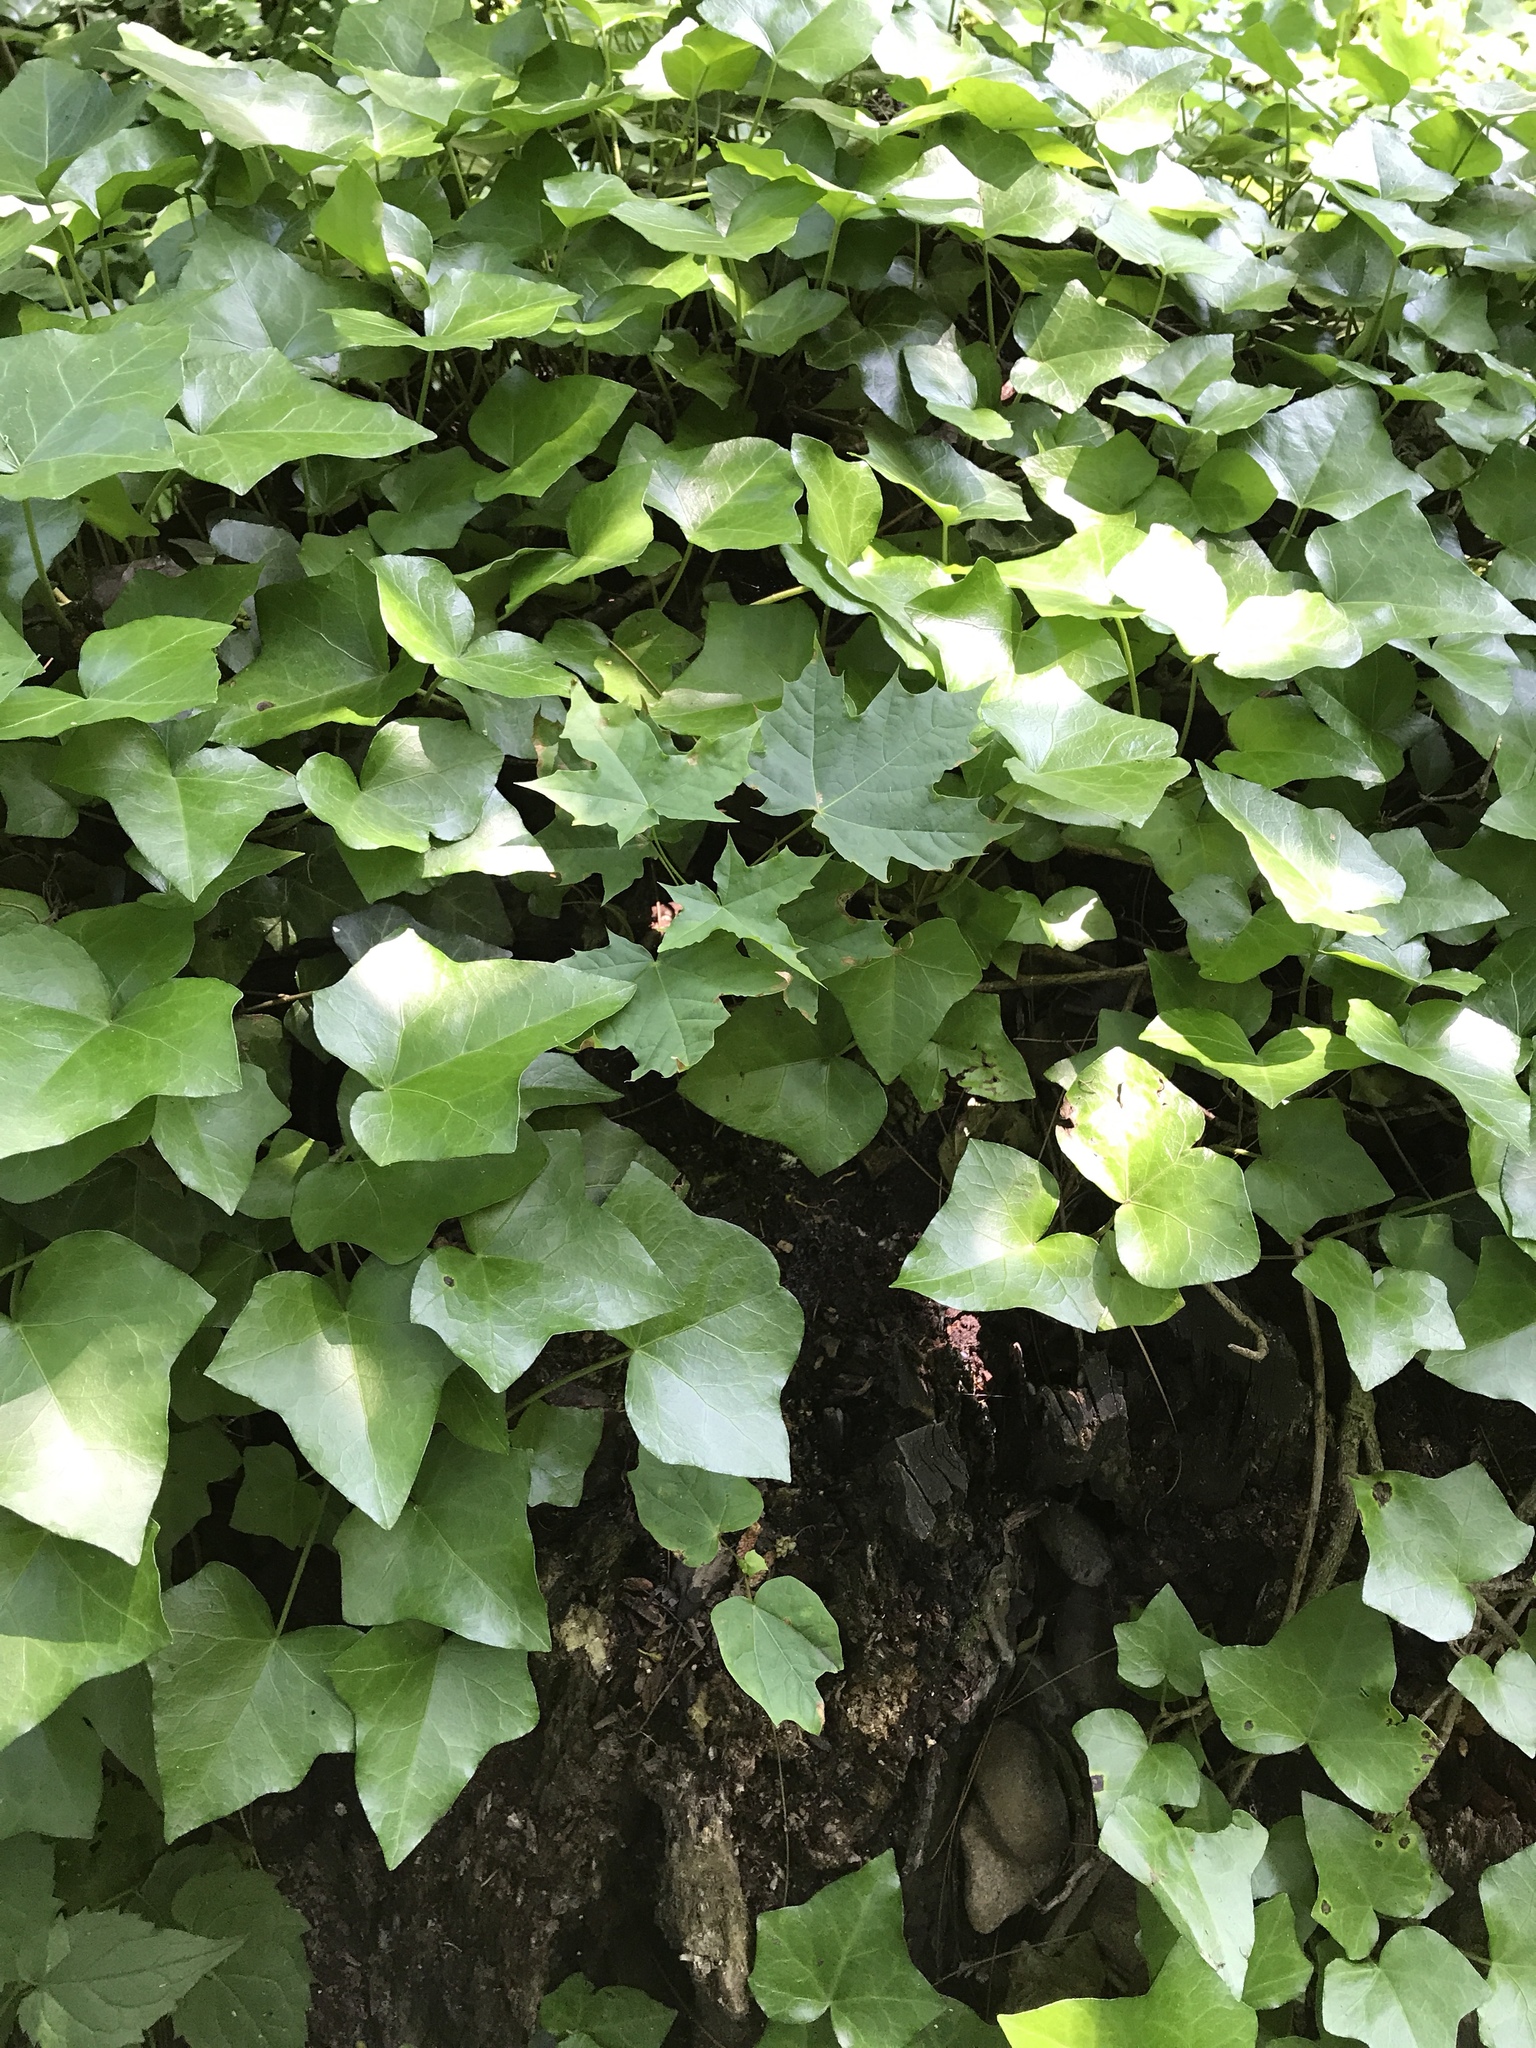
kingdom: Plantae
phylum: Tracheophyta
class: Magnoliopsida
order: Apiales
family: Araliaceae
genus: Hedera
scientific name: Hedera helix
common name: Ivy
